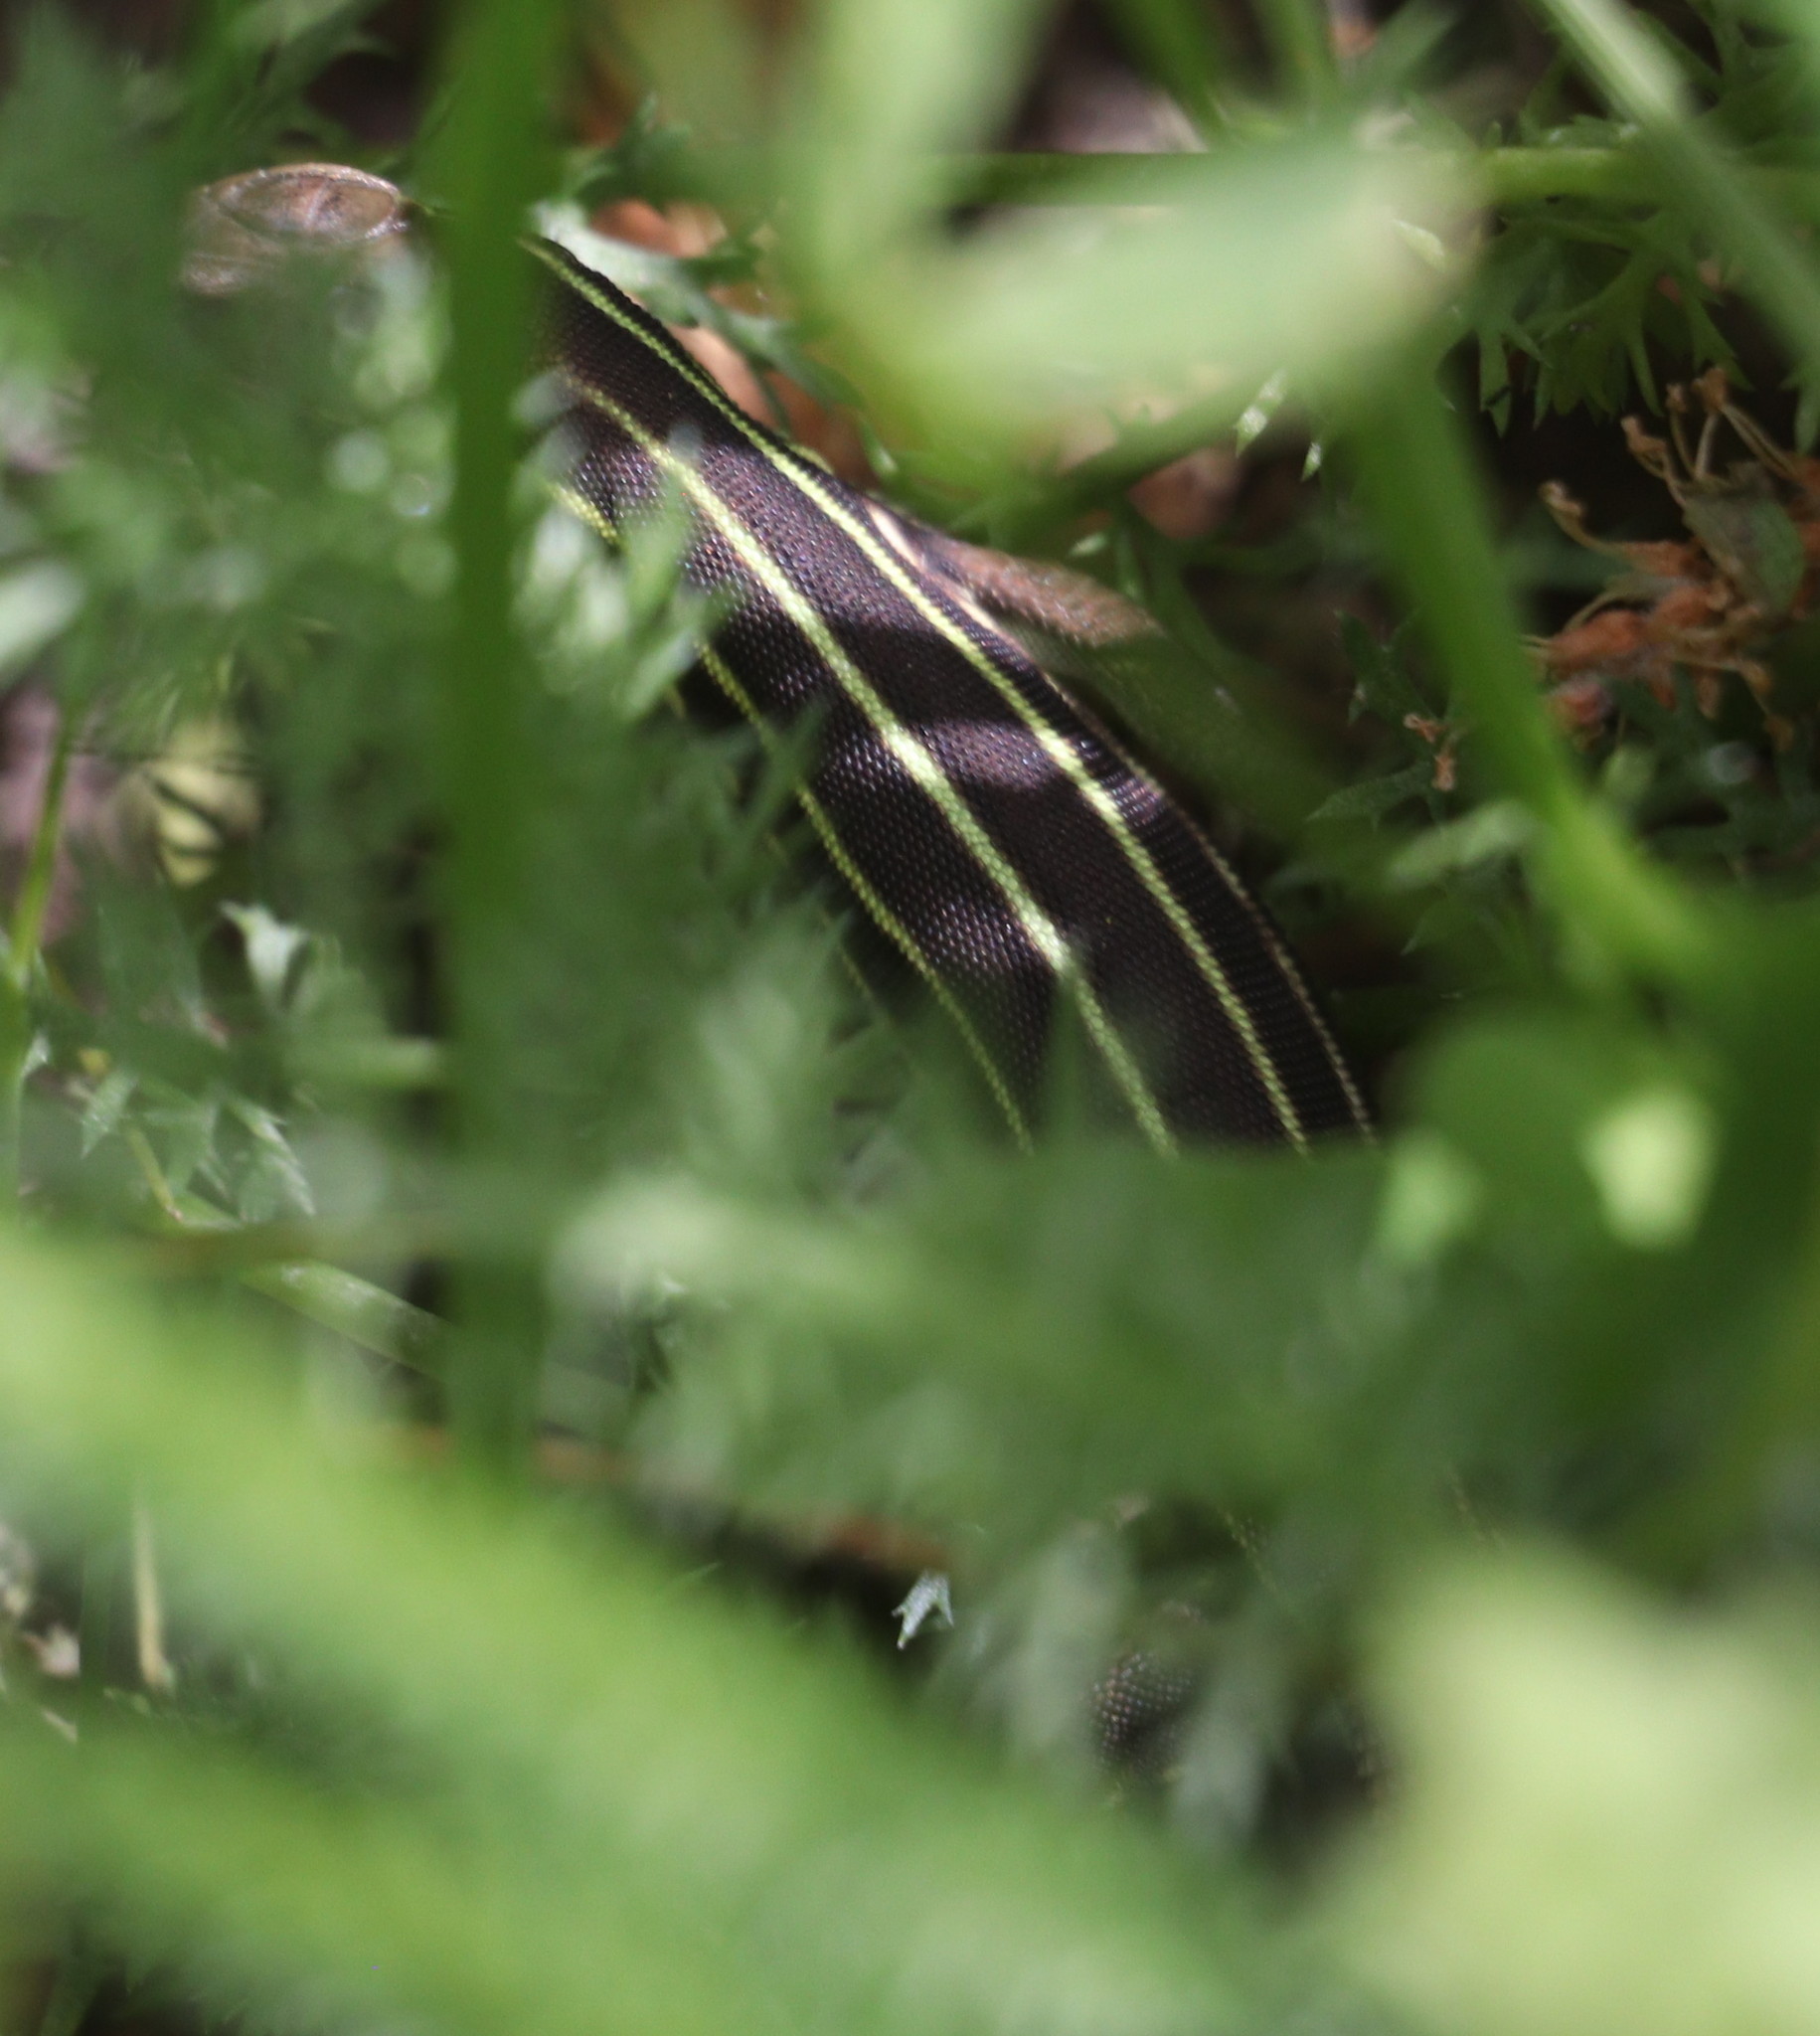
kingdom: Animalia
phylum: Chordata
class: Squamata
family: Lacertidae
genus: Lacerta
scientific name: Lacerta media
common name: Medium lizard
